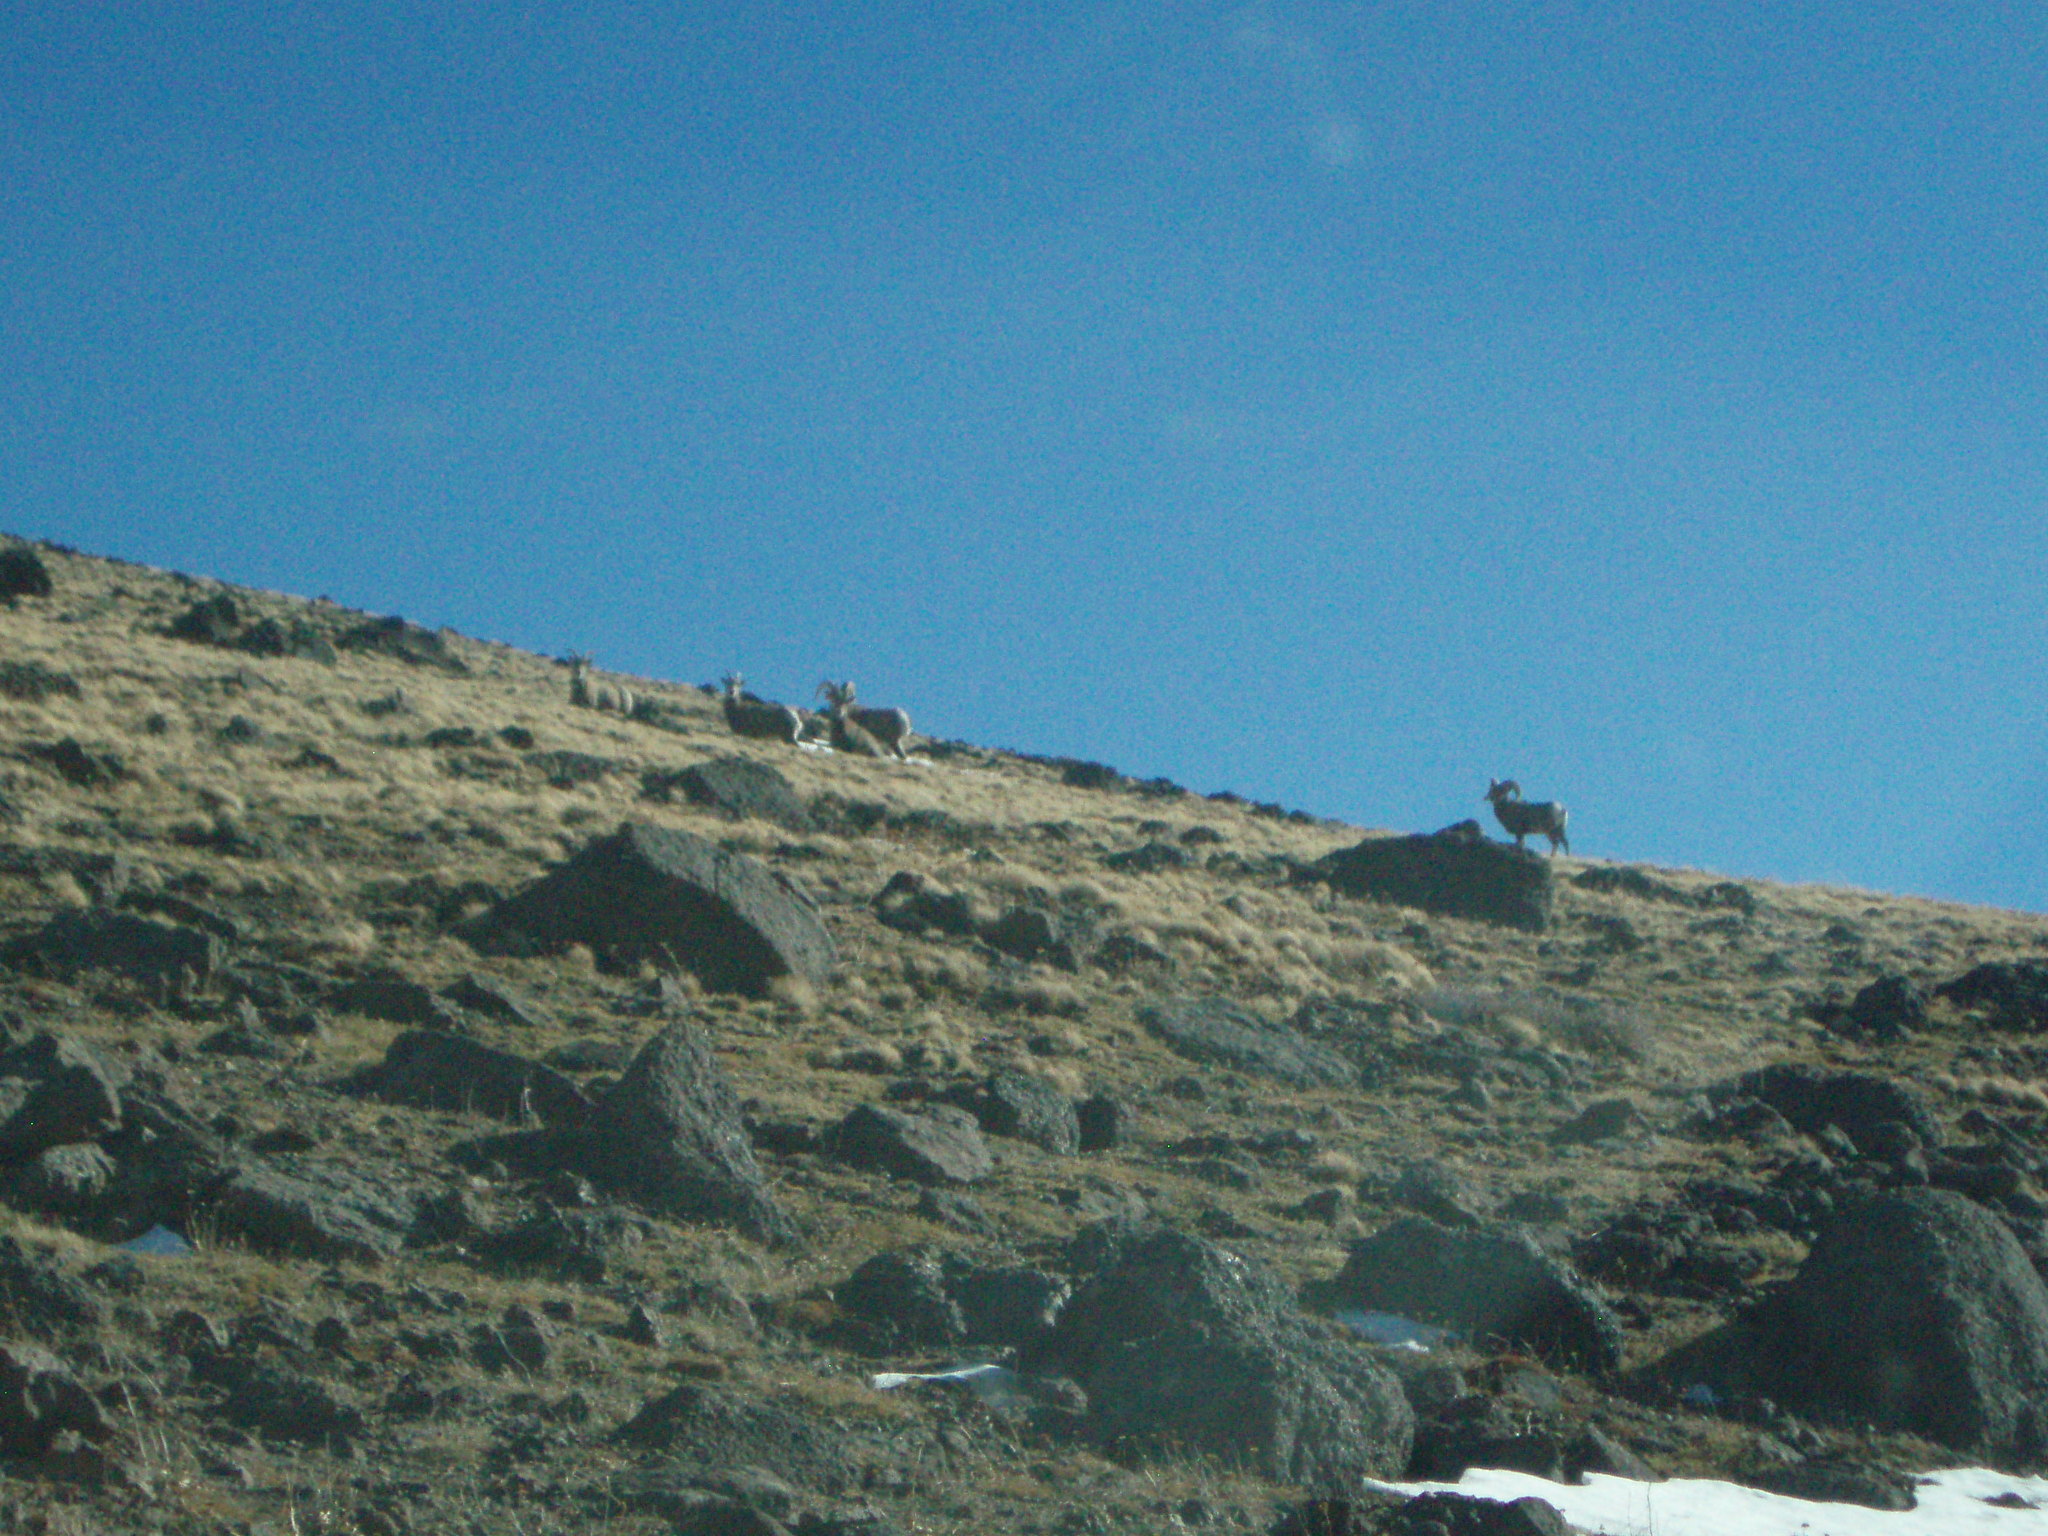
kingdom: Animalia
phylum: Chordata
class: Mammalia
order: Artiodactyla
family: Bovidae
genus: Ovis
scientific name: Ovis canadensis
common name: Bighorn sheep
